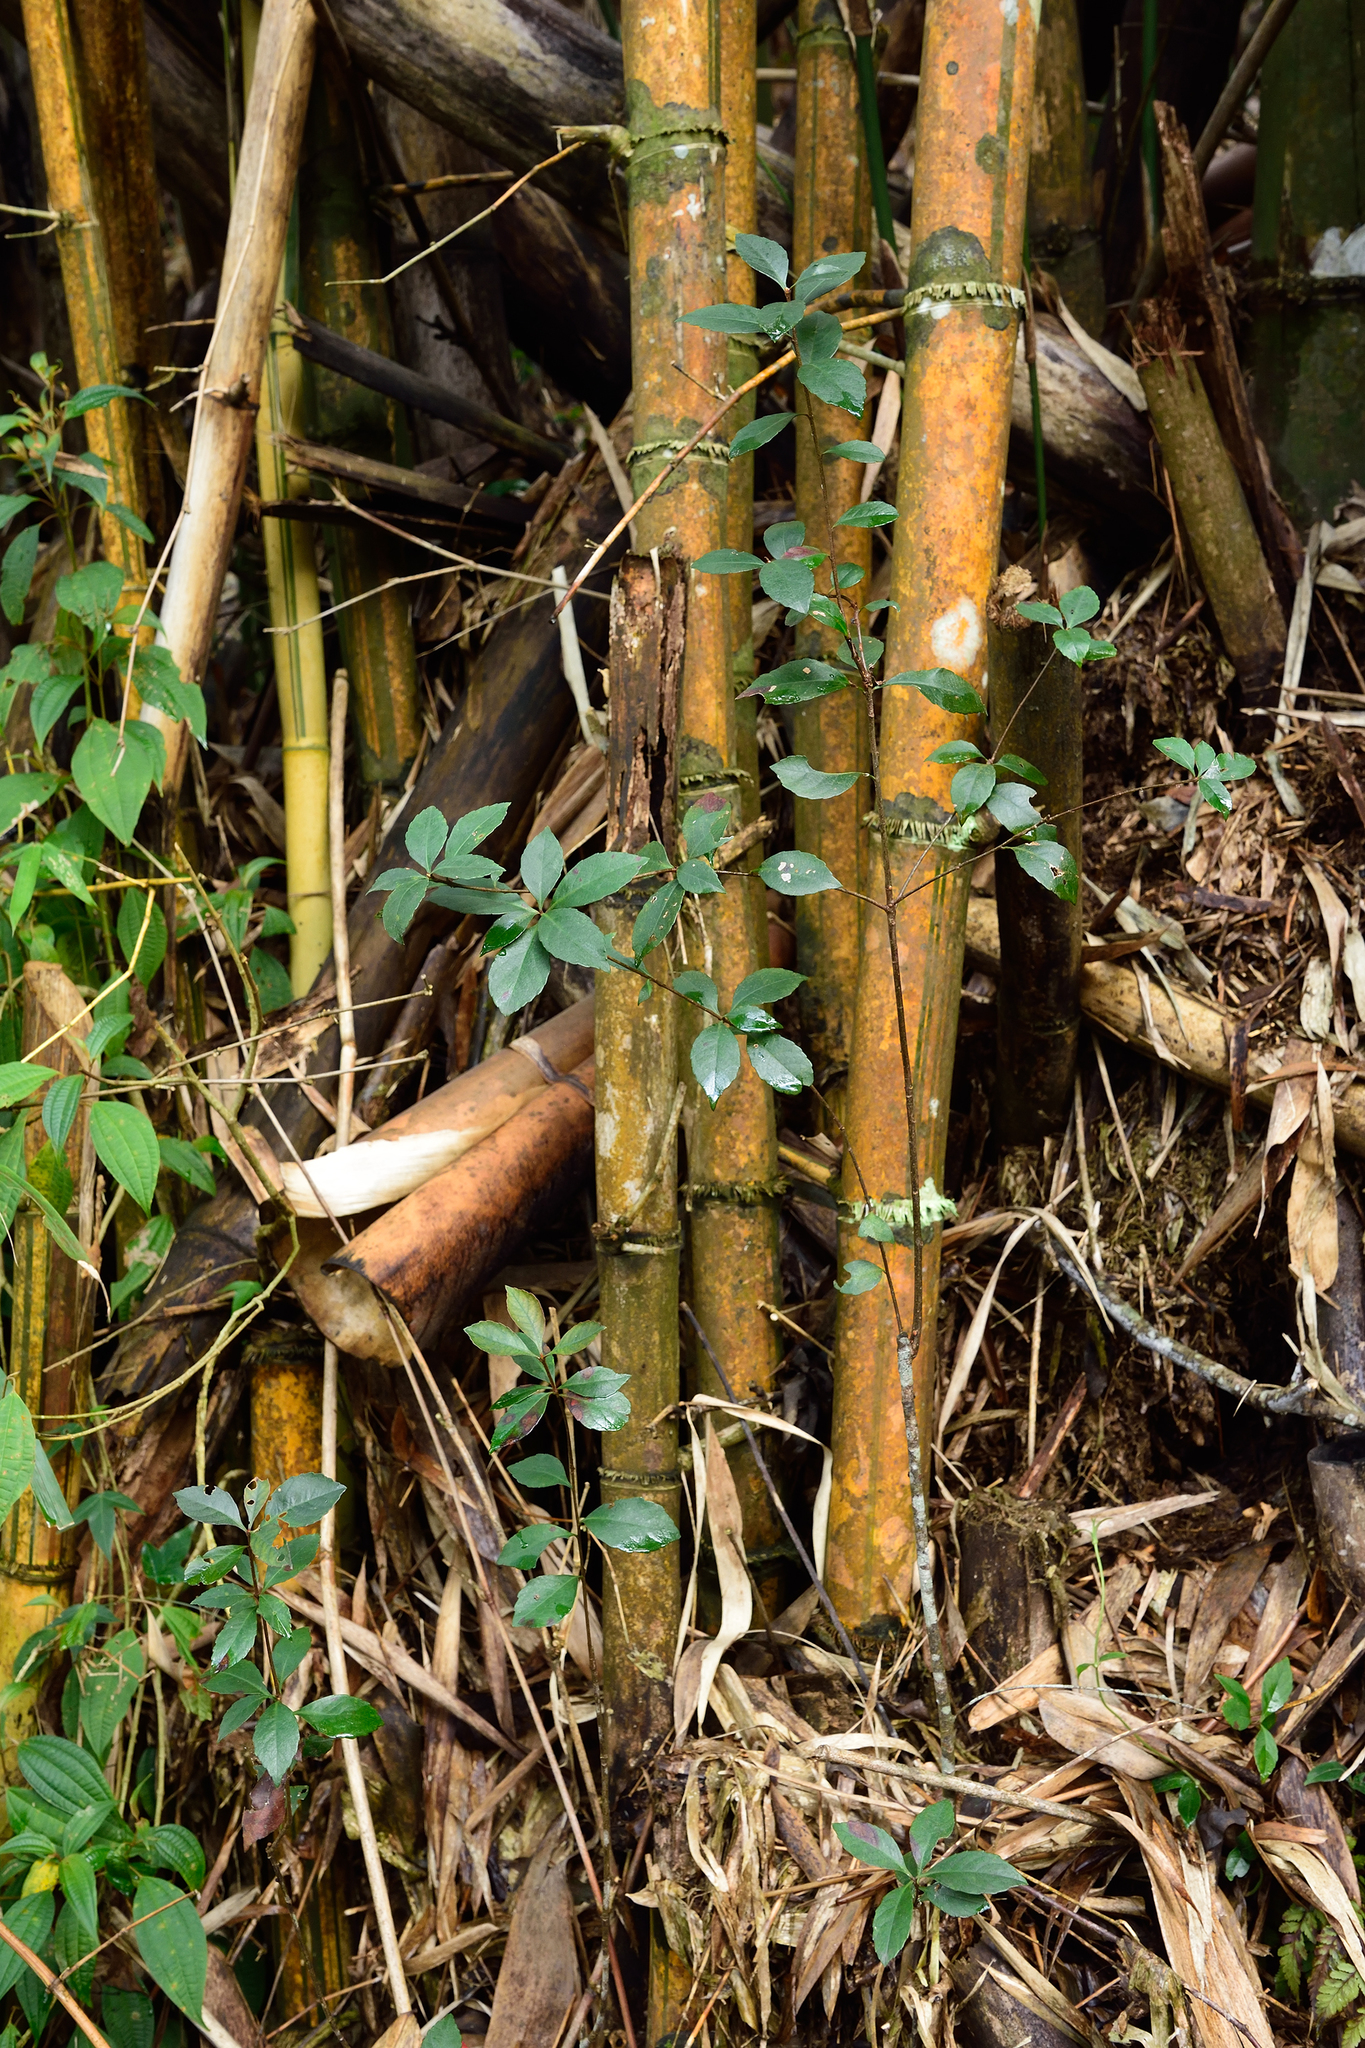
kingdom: Plantae
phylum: Tracheophyta
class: Magnoliopsida
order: Rosales
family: Rosaceae
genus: Rhaphiolepis
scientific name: Rhaphiolepis indica
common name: India-hawthorn
